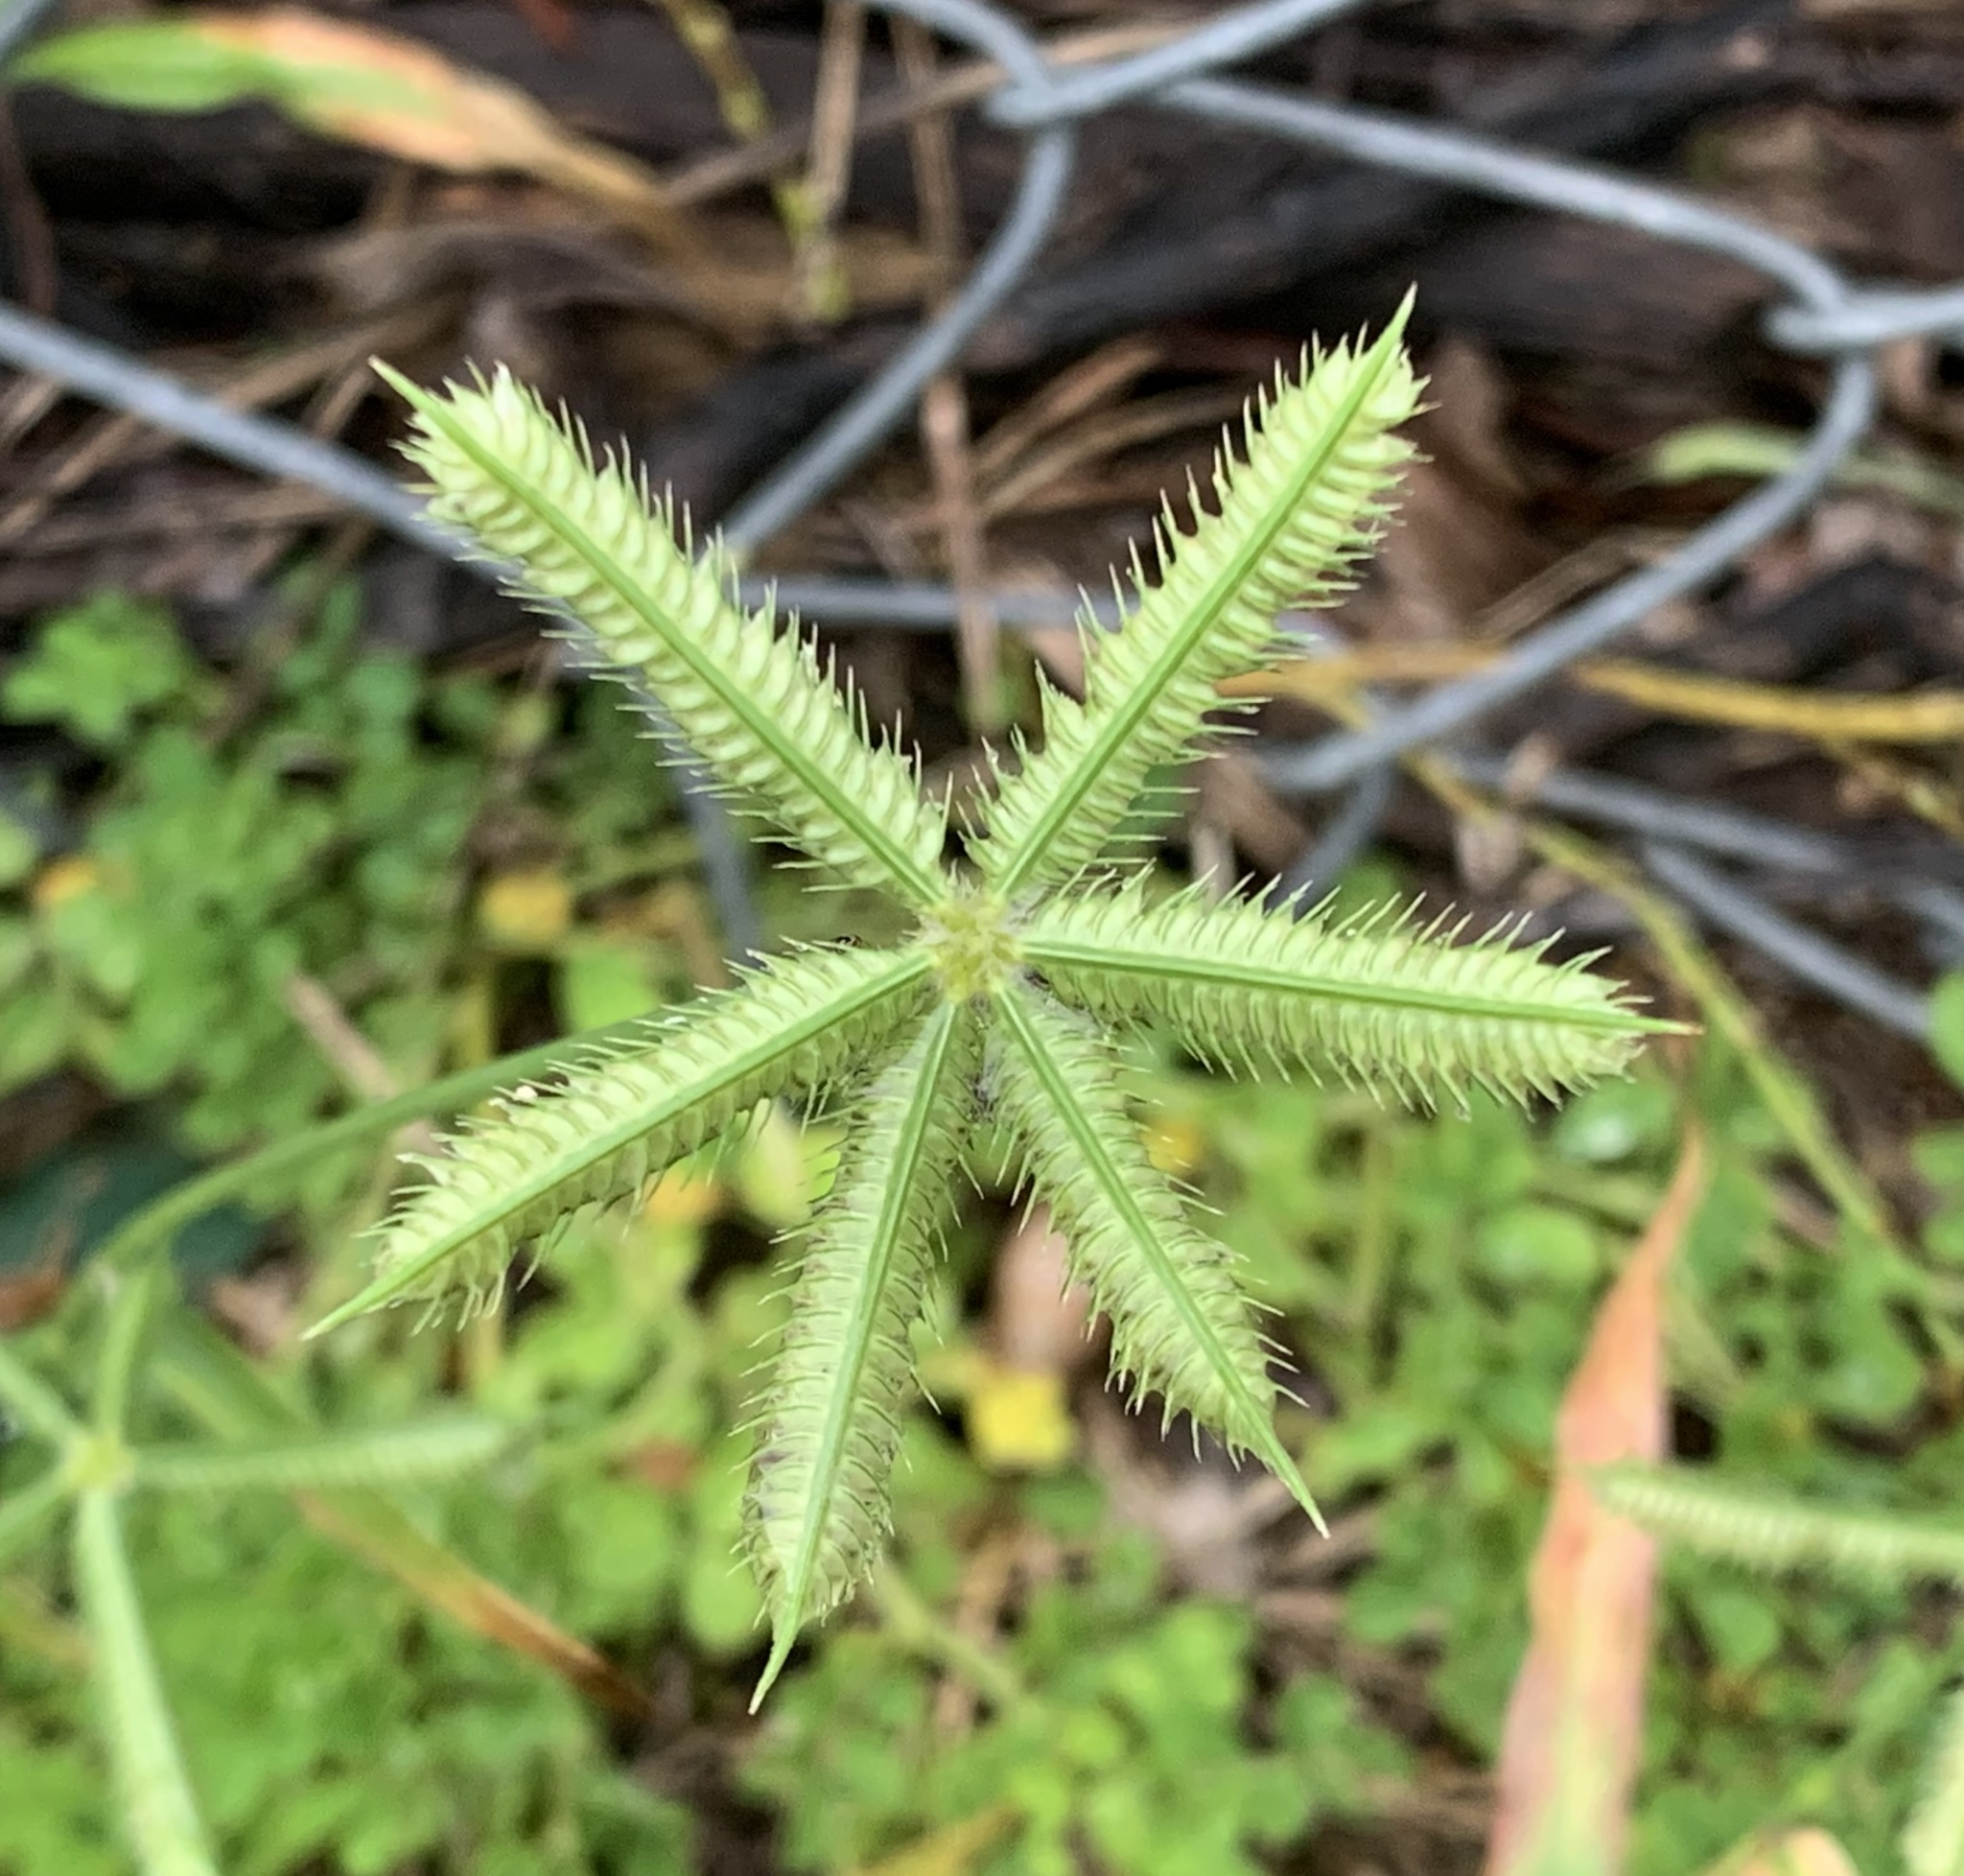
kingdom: Plantae
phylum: Tracheophyta
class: Liliopsida
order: Poales
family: Poaceae
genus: Dactyloctenium
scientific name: Dactyloctenium aegyptium
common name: Egyptian grass
